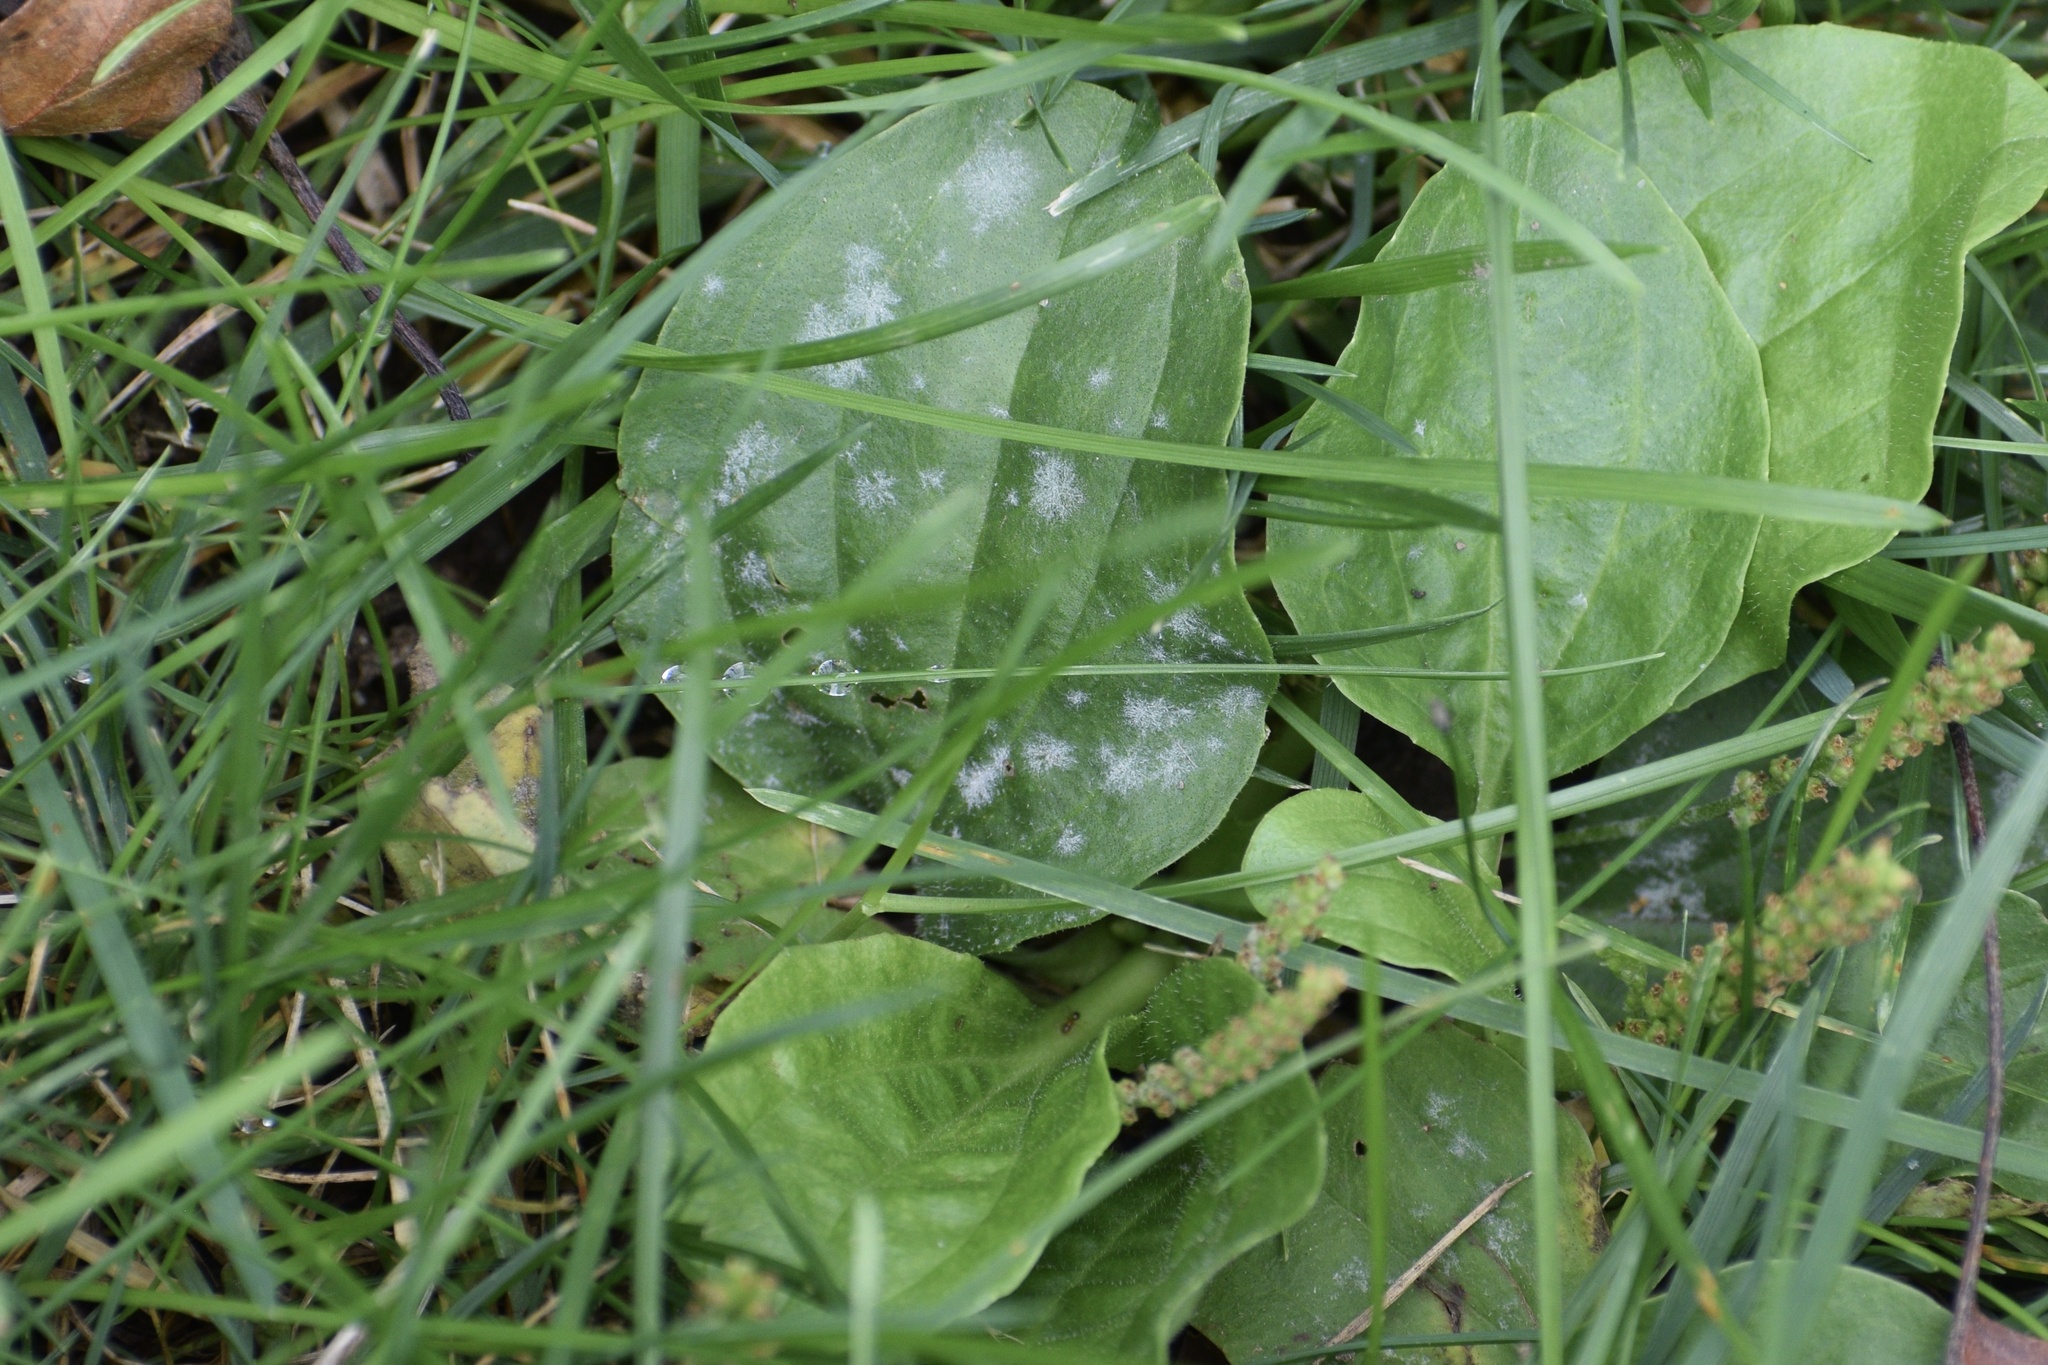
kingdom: Fungi
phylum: Ascomycota
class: Leotiomycetes
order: Helotiales
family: Erysiphaceae
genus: Golovinomyces
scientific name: Golovinomyces sordidus
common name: Plantain mildew
